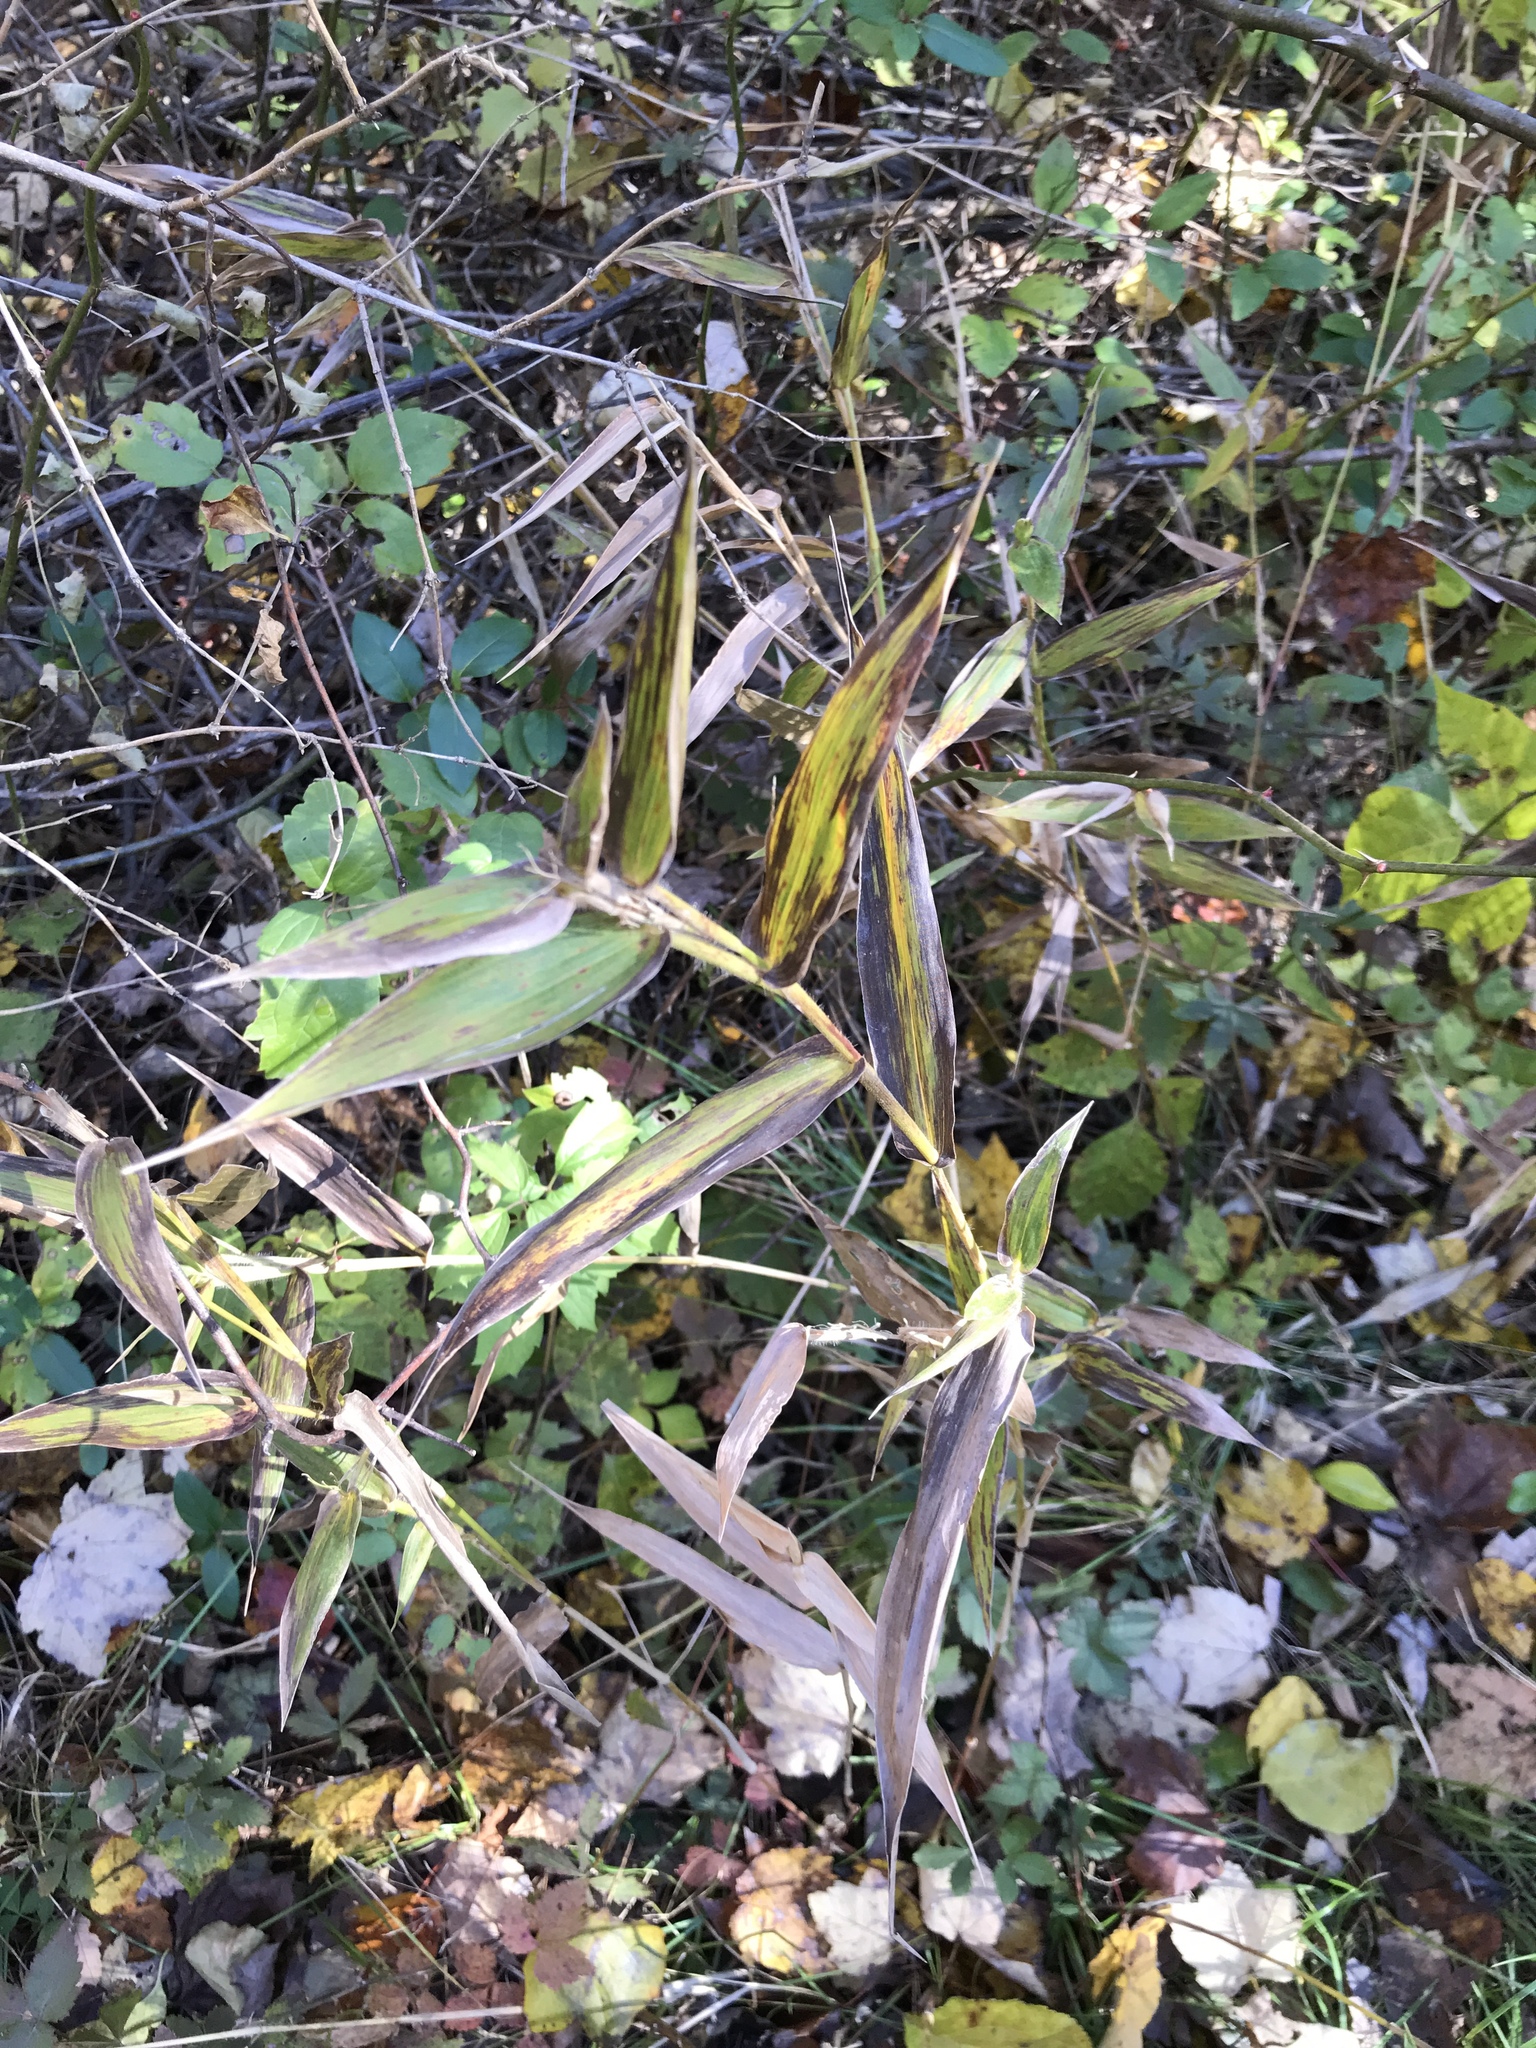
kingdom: Plantae
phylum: Tracheophyta
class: Liliopsida
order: Poales
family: Poaceae
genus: Dichanthelium
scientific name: Dichanthelium clandestinum
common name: Deer-tongue grass
